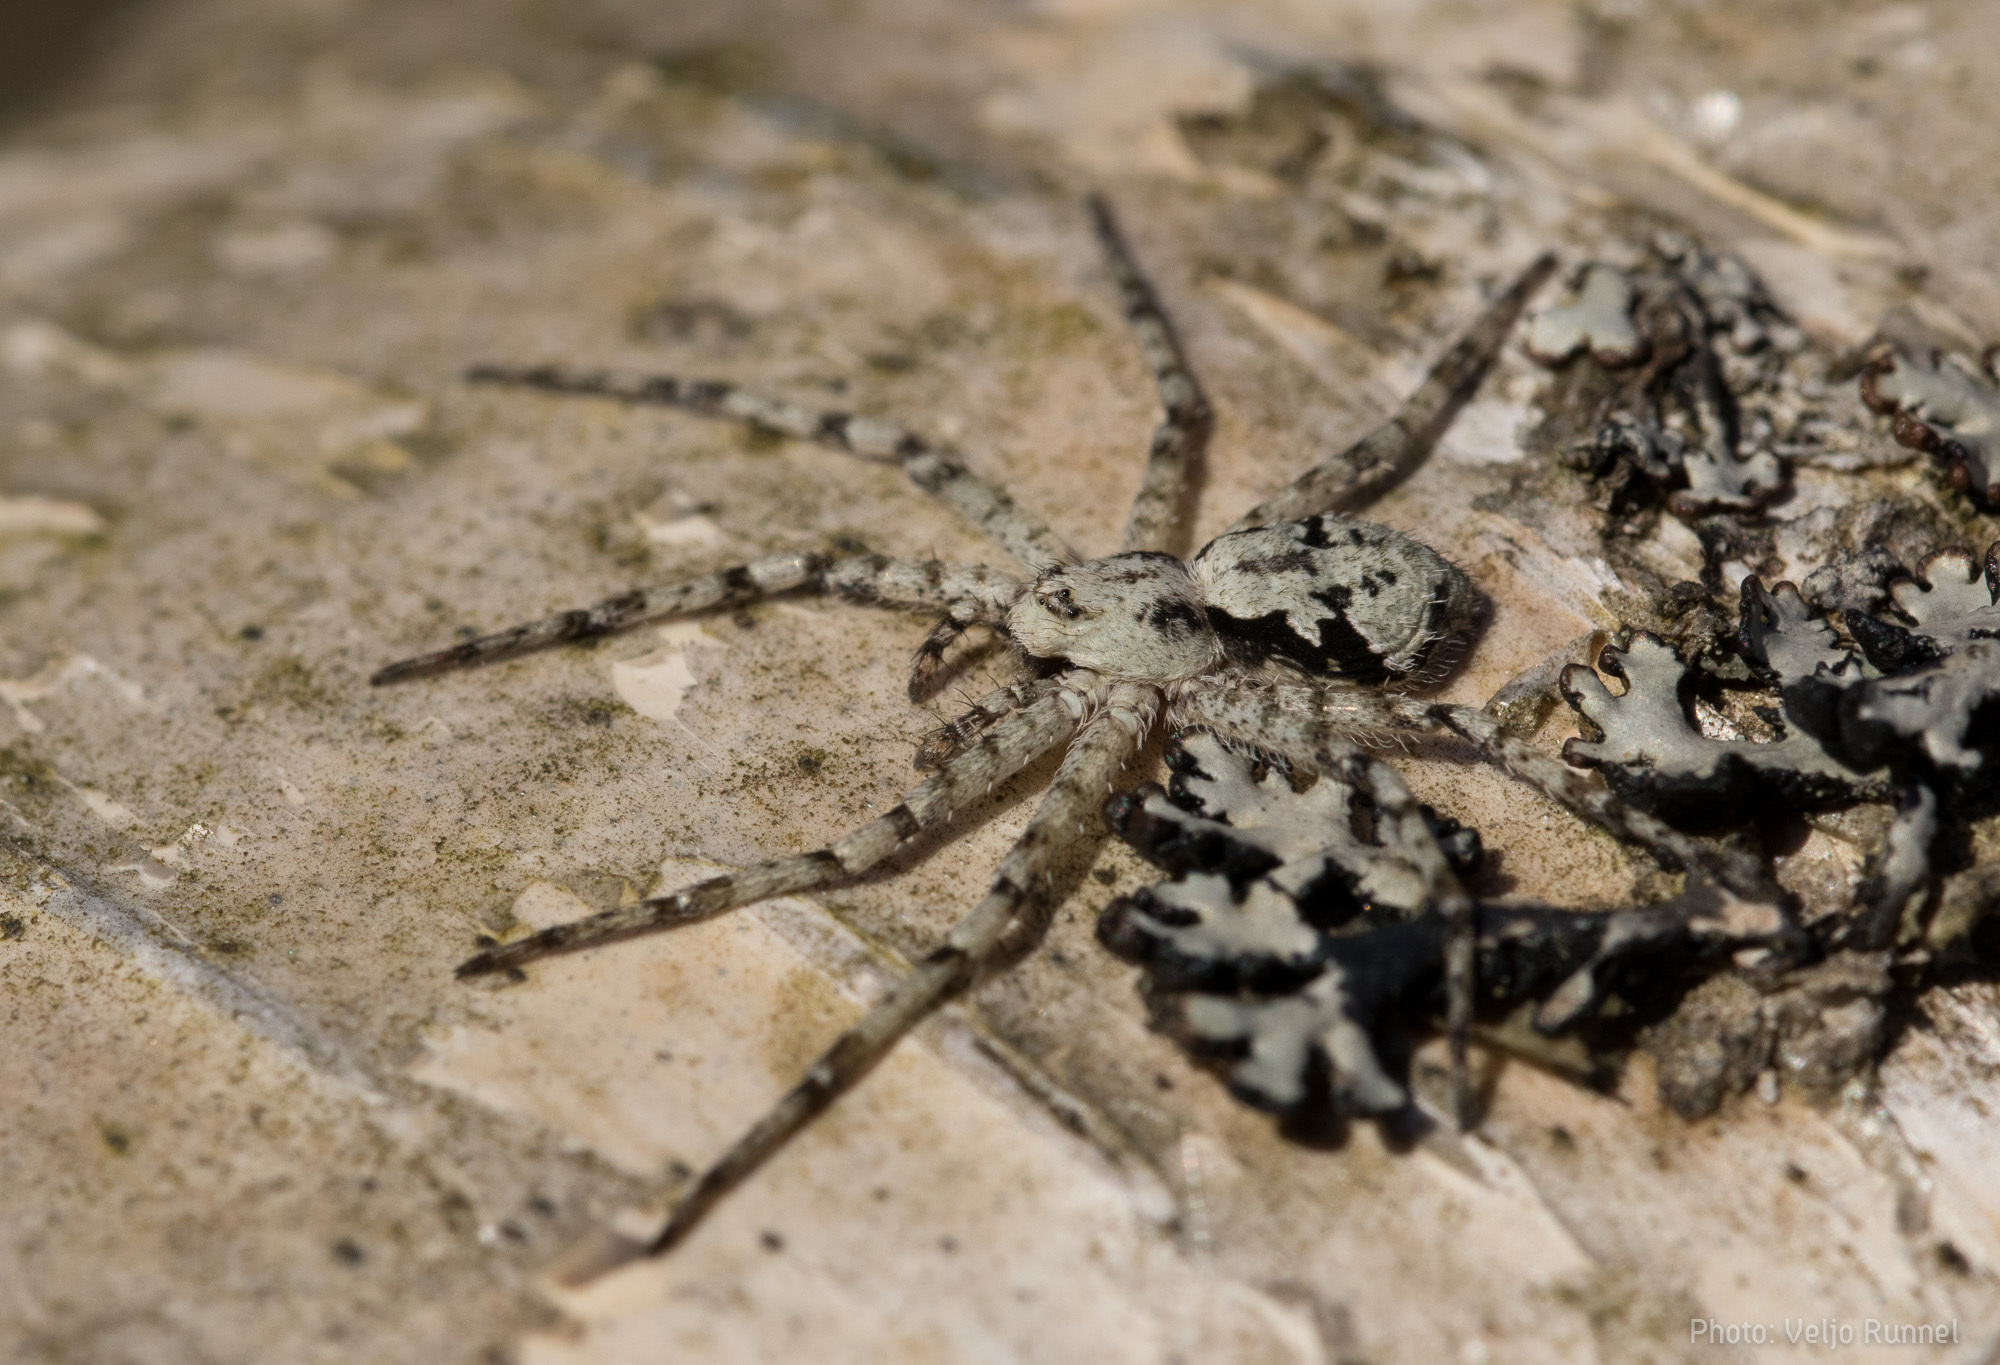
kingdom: Animalia
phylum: Arthropoda
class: Arachnida
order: Araneae
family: Philodromidae
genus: Philodromus
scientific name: Philodromus margaritatus
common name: Lichen running-spider
